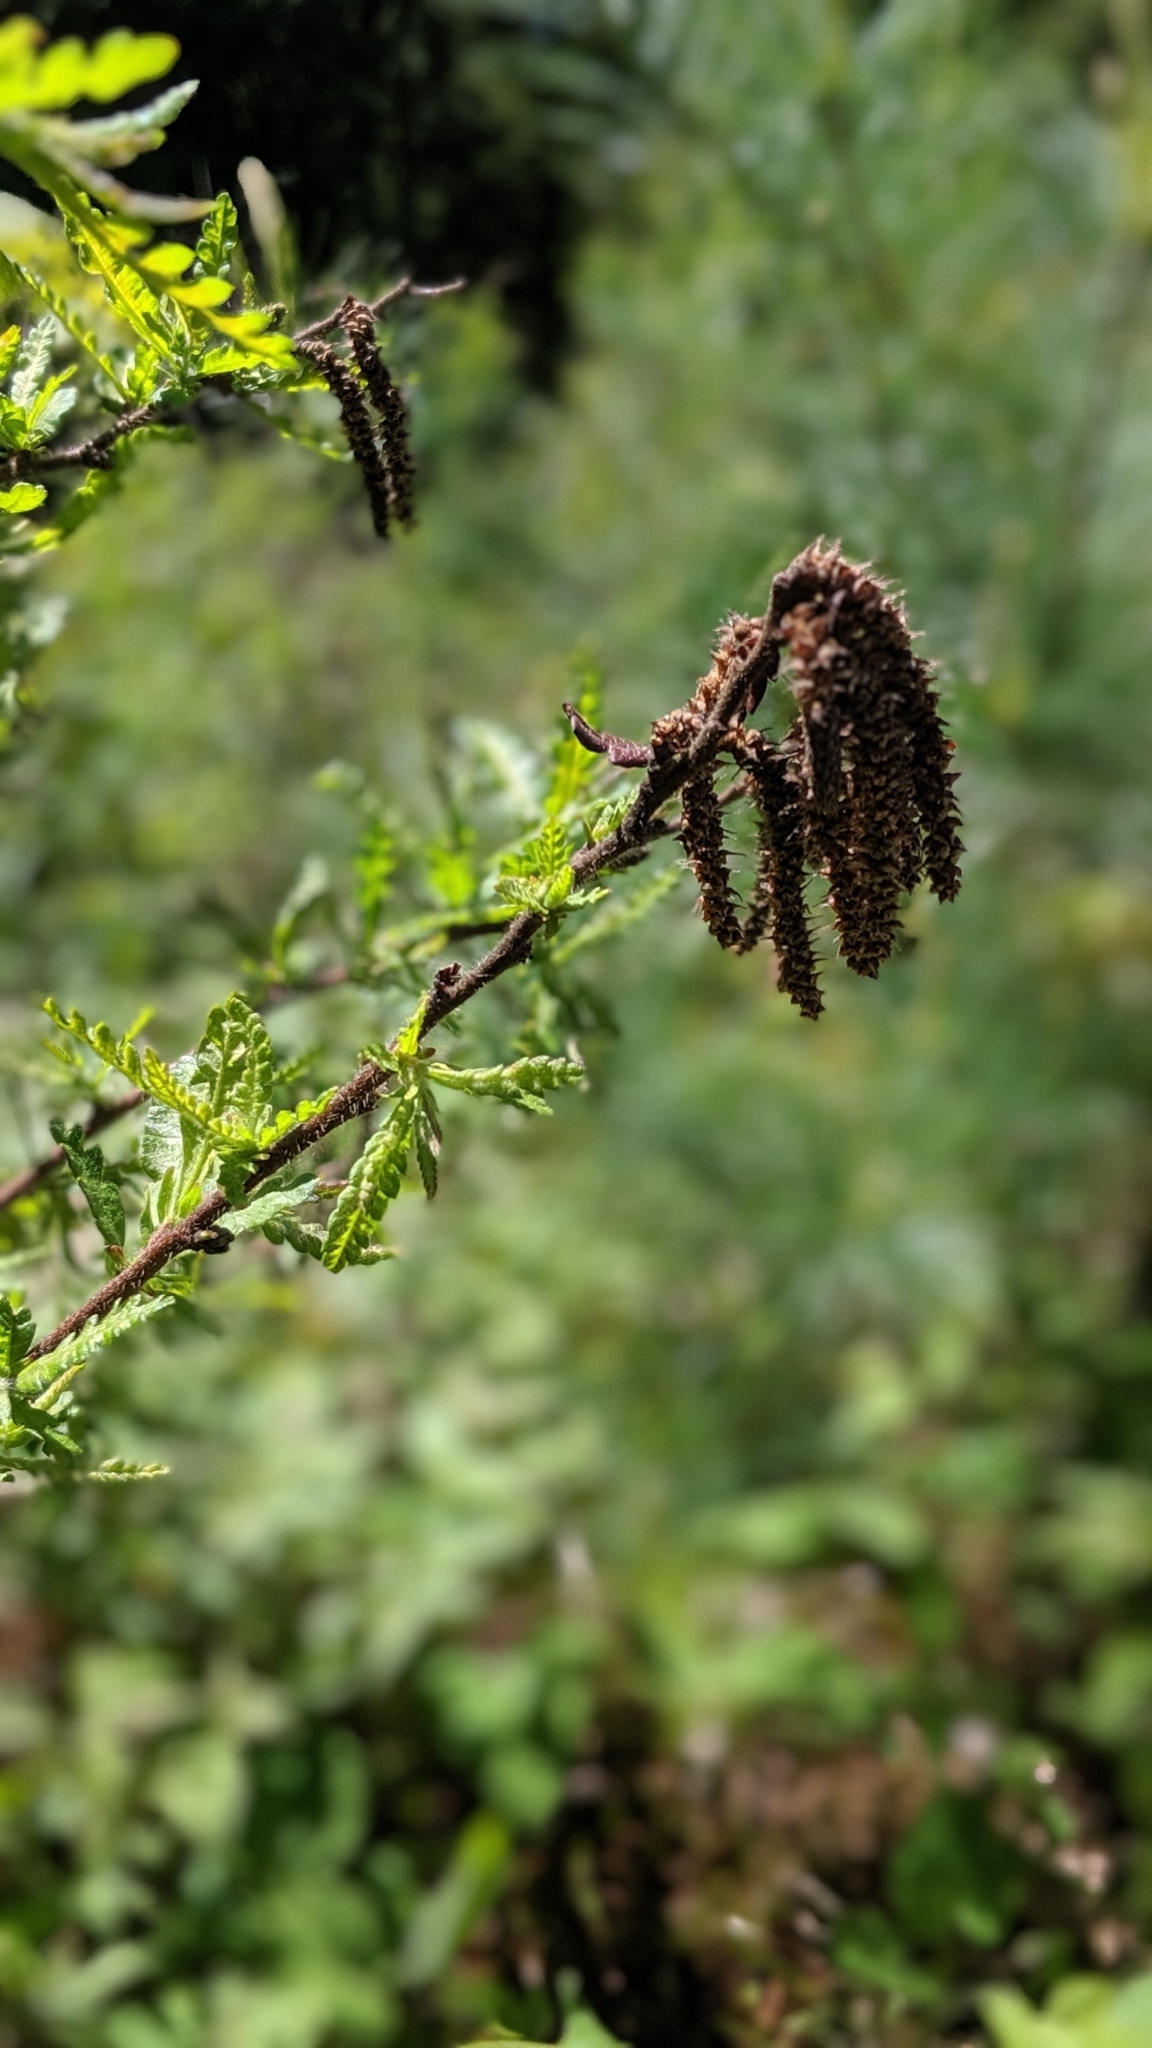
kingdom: Plantae
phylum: Tracheophyta
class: Magnoliopsida
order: Fagales
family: Myricaceae
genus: Comptonia
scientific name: Comptonia peregrina
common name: Sweet-fern
